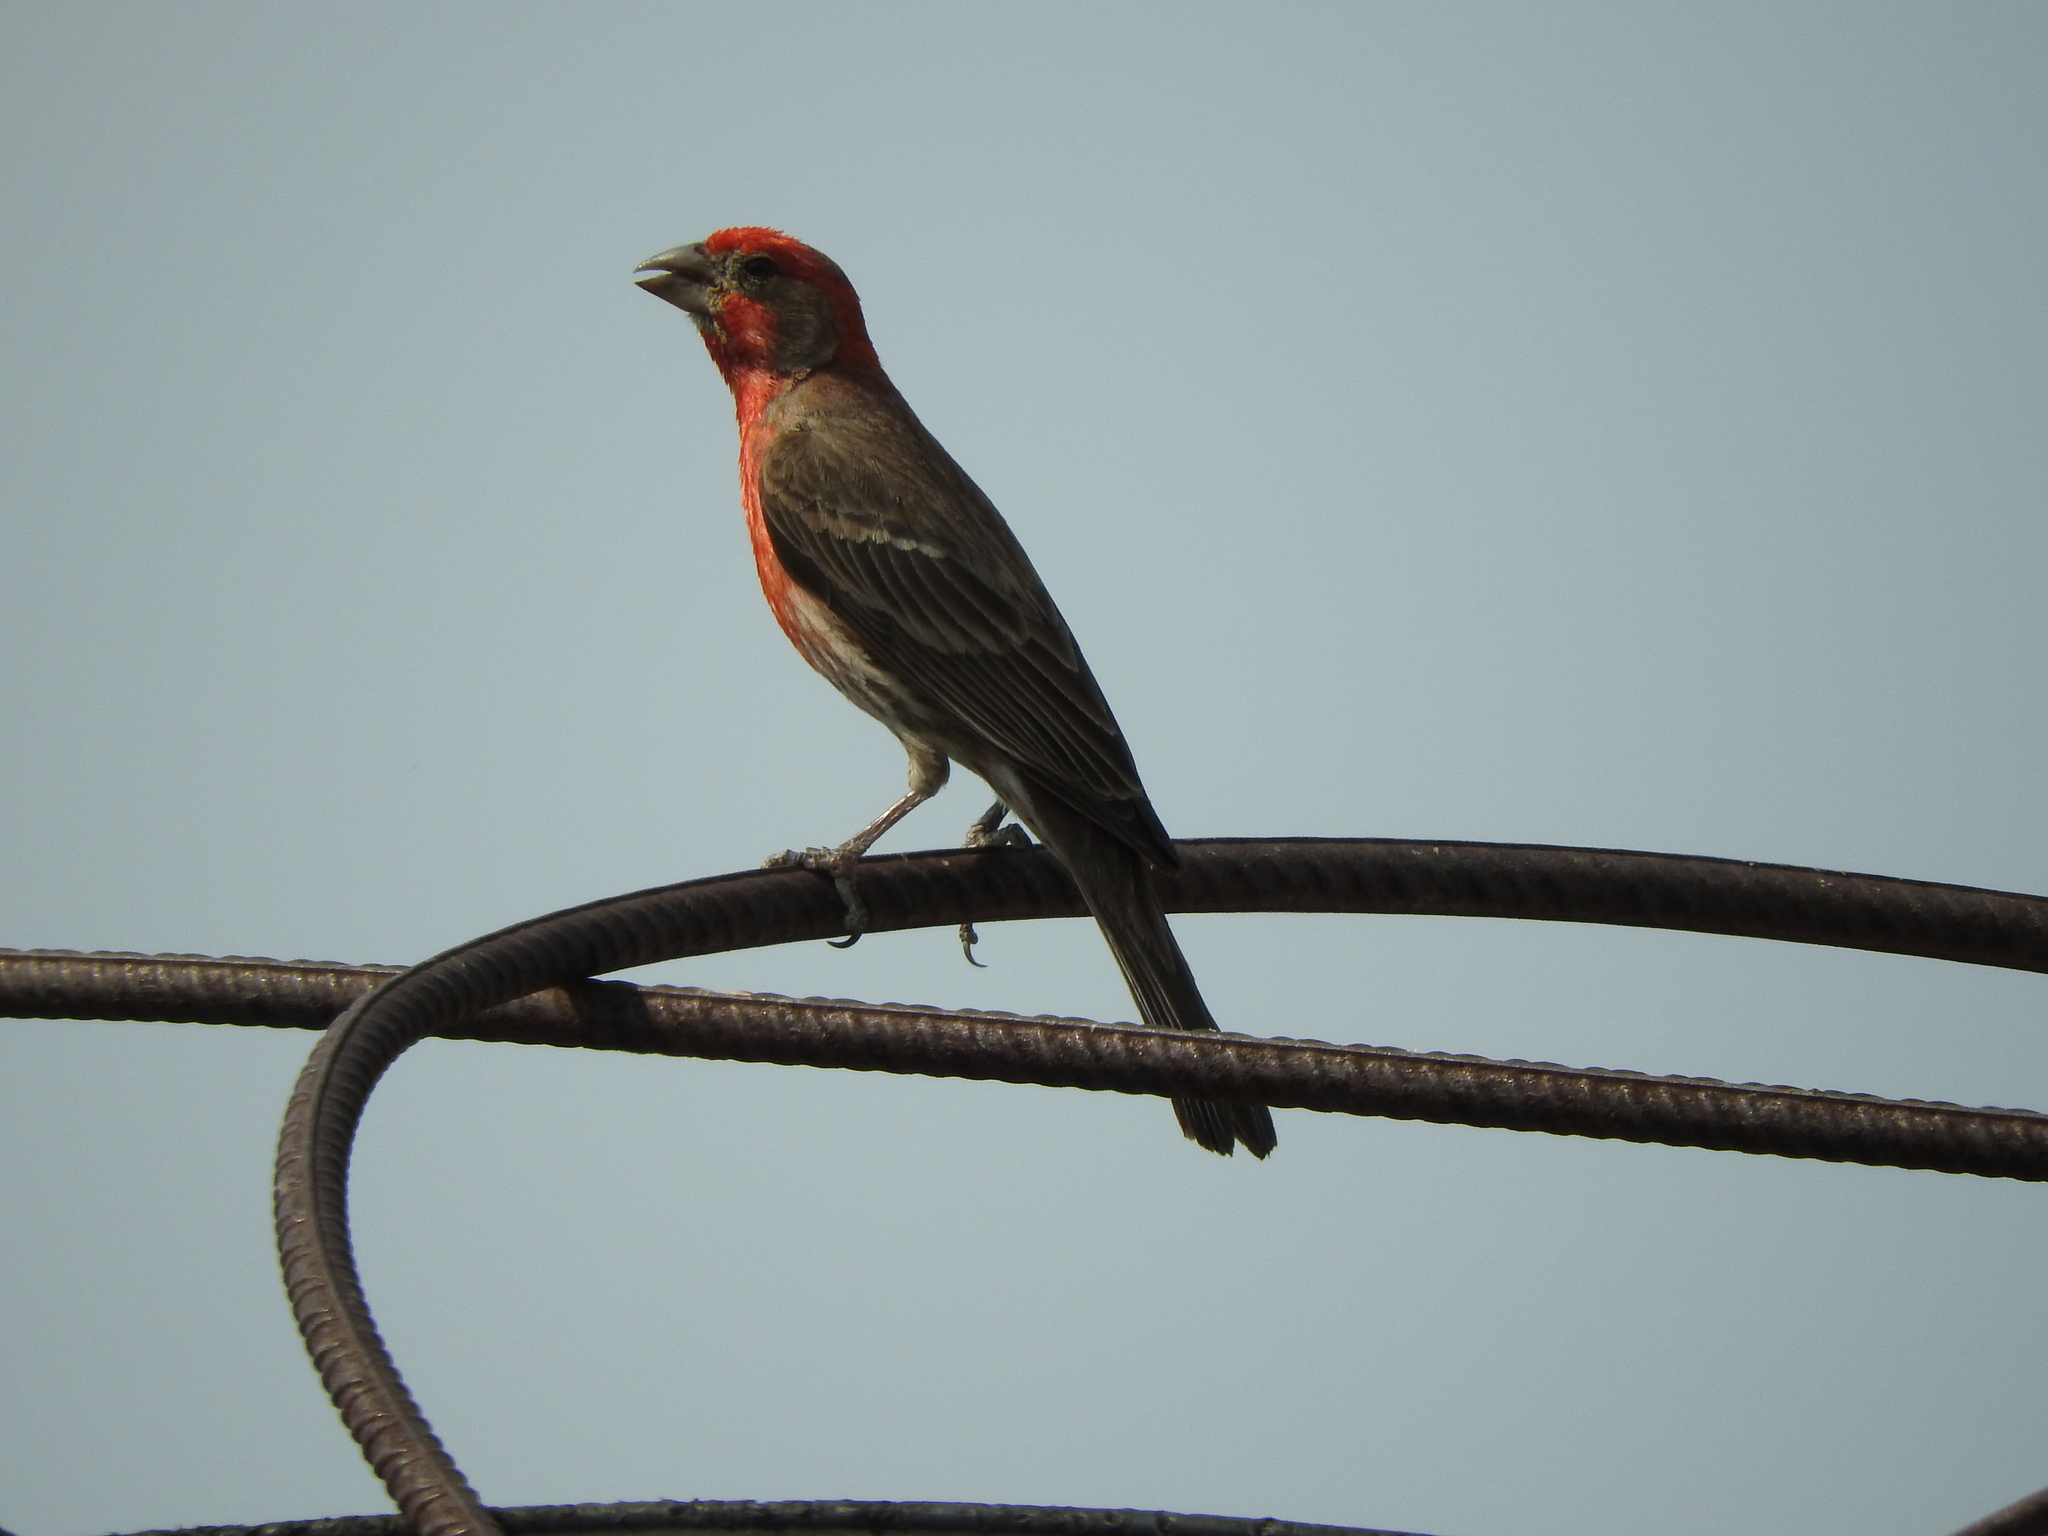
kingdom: Animalia
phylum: Chordata
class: Aves
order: Passeriformes
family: Fringillidae
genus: Haemorhous
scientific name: Haemorhous mexicanus
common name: House finch
